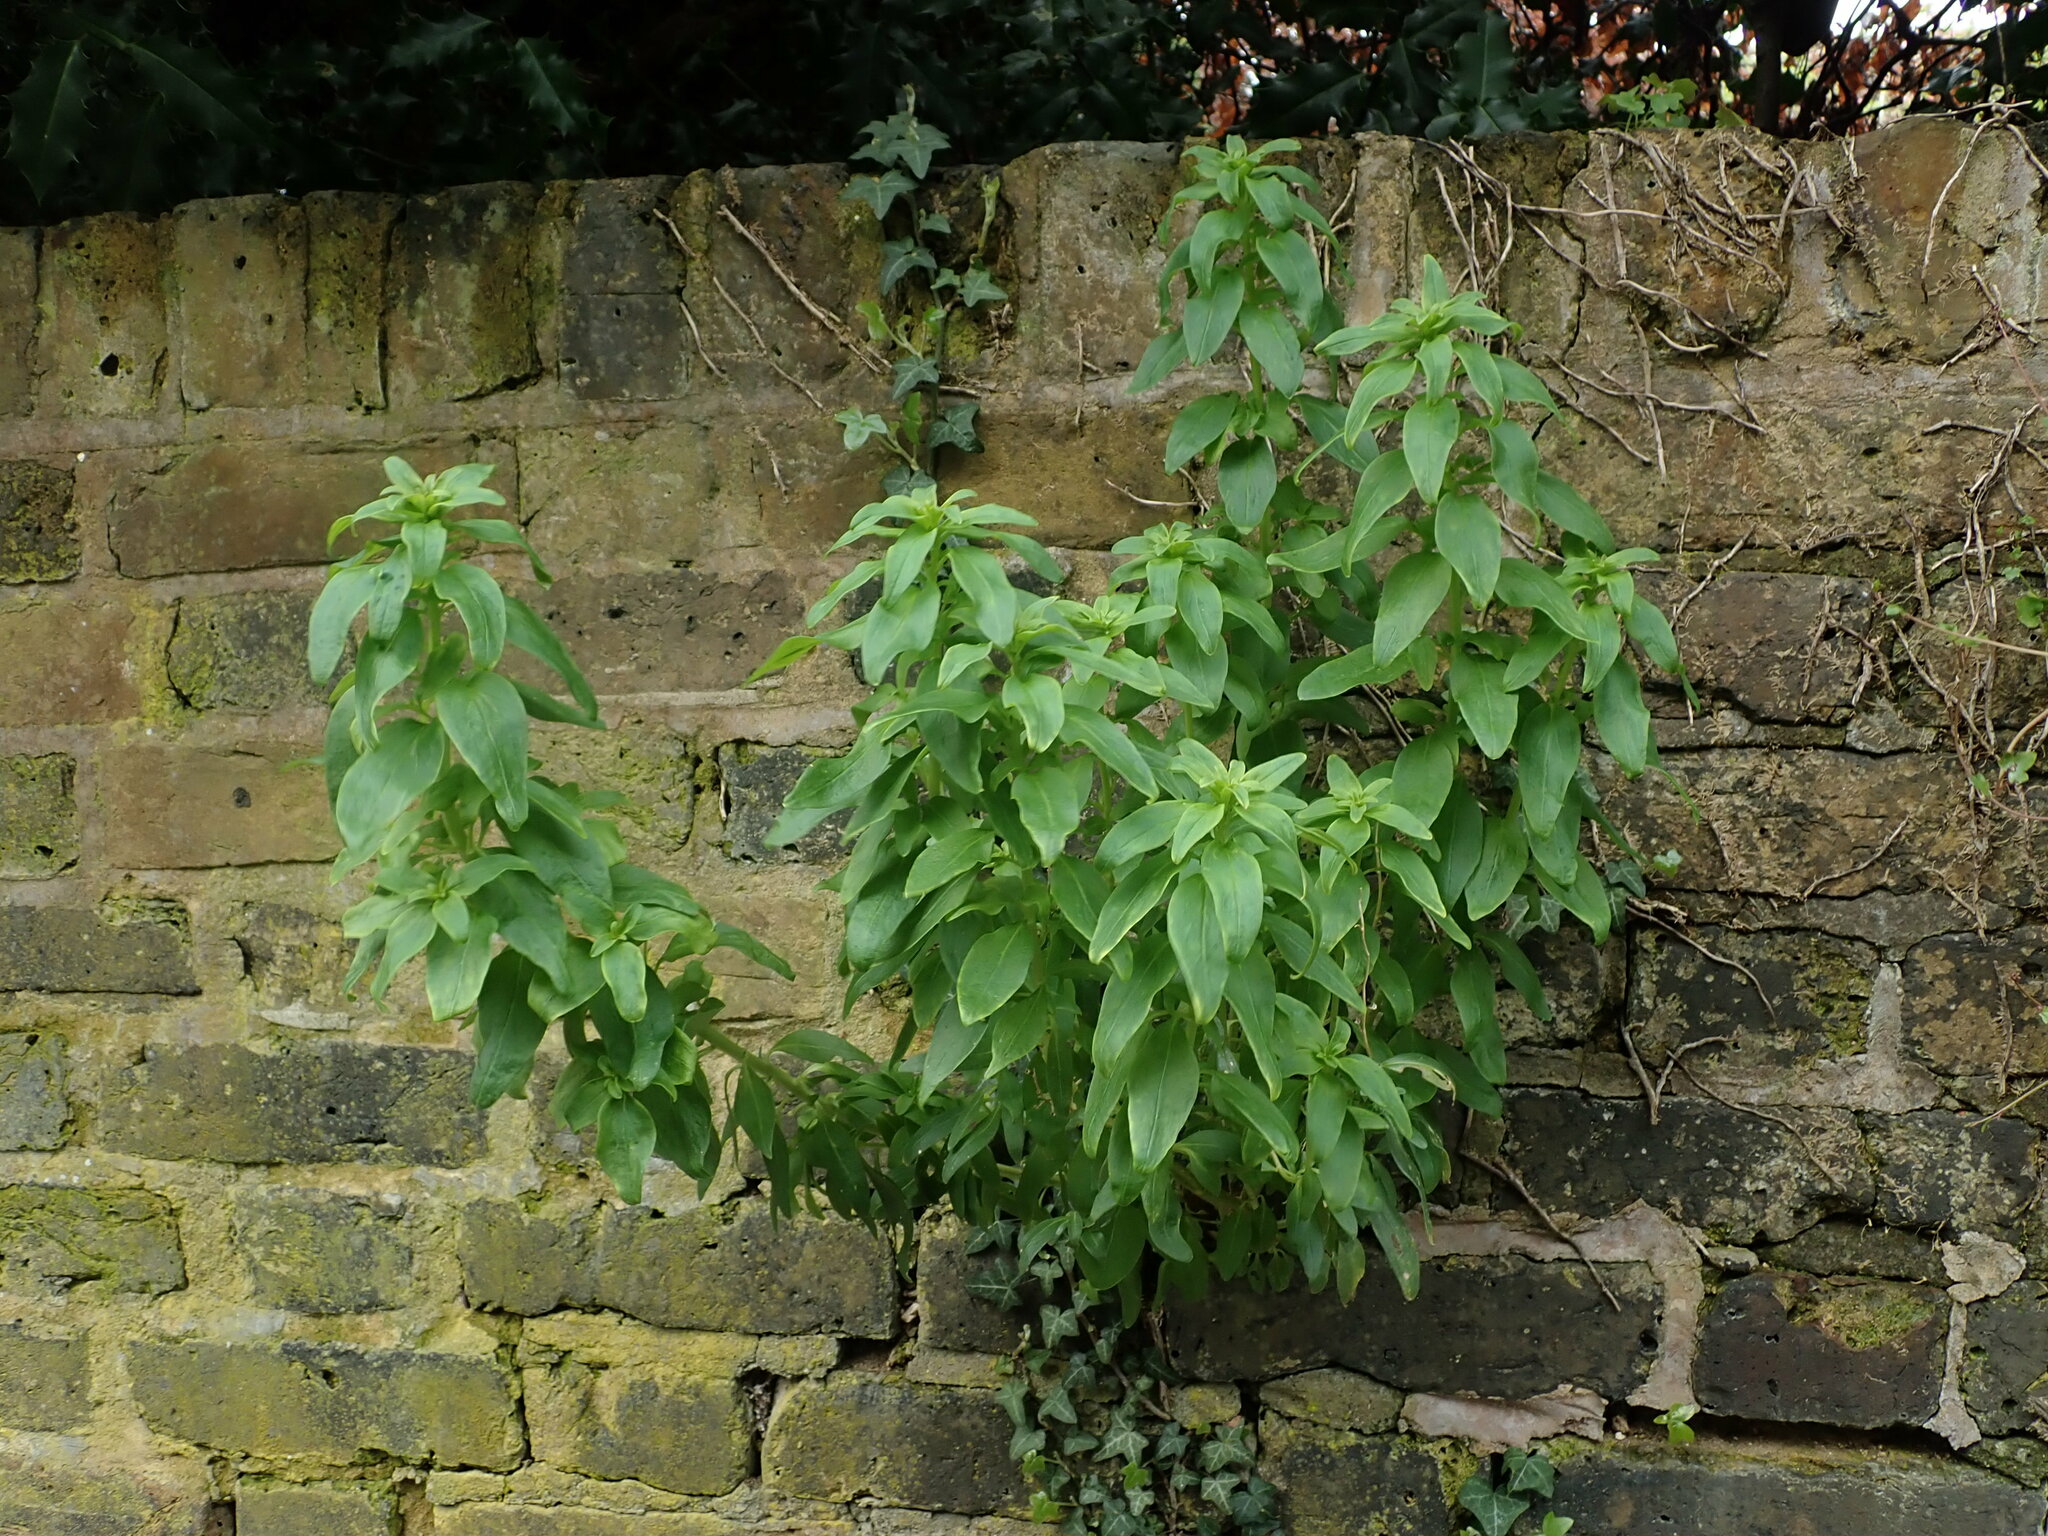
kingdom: Plantae
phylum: Tracheophyta
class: Magnoliopsida
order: Dipsacales
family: Caprifoliaceae
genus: Centranthus
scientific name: Centranthus ruber
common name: Red valerian
